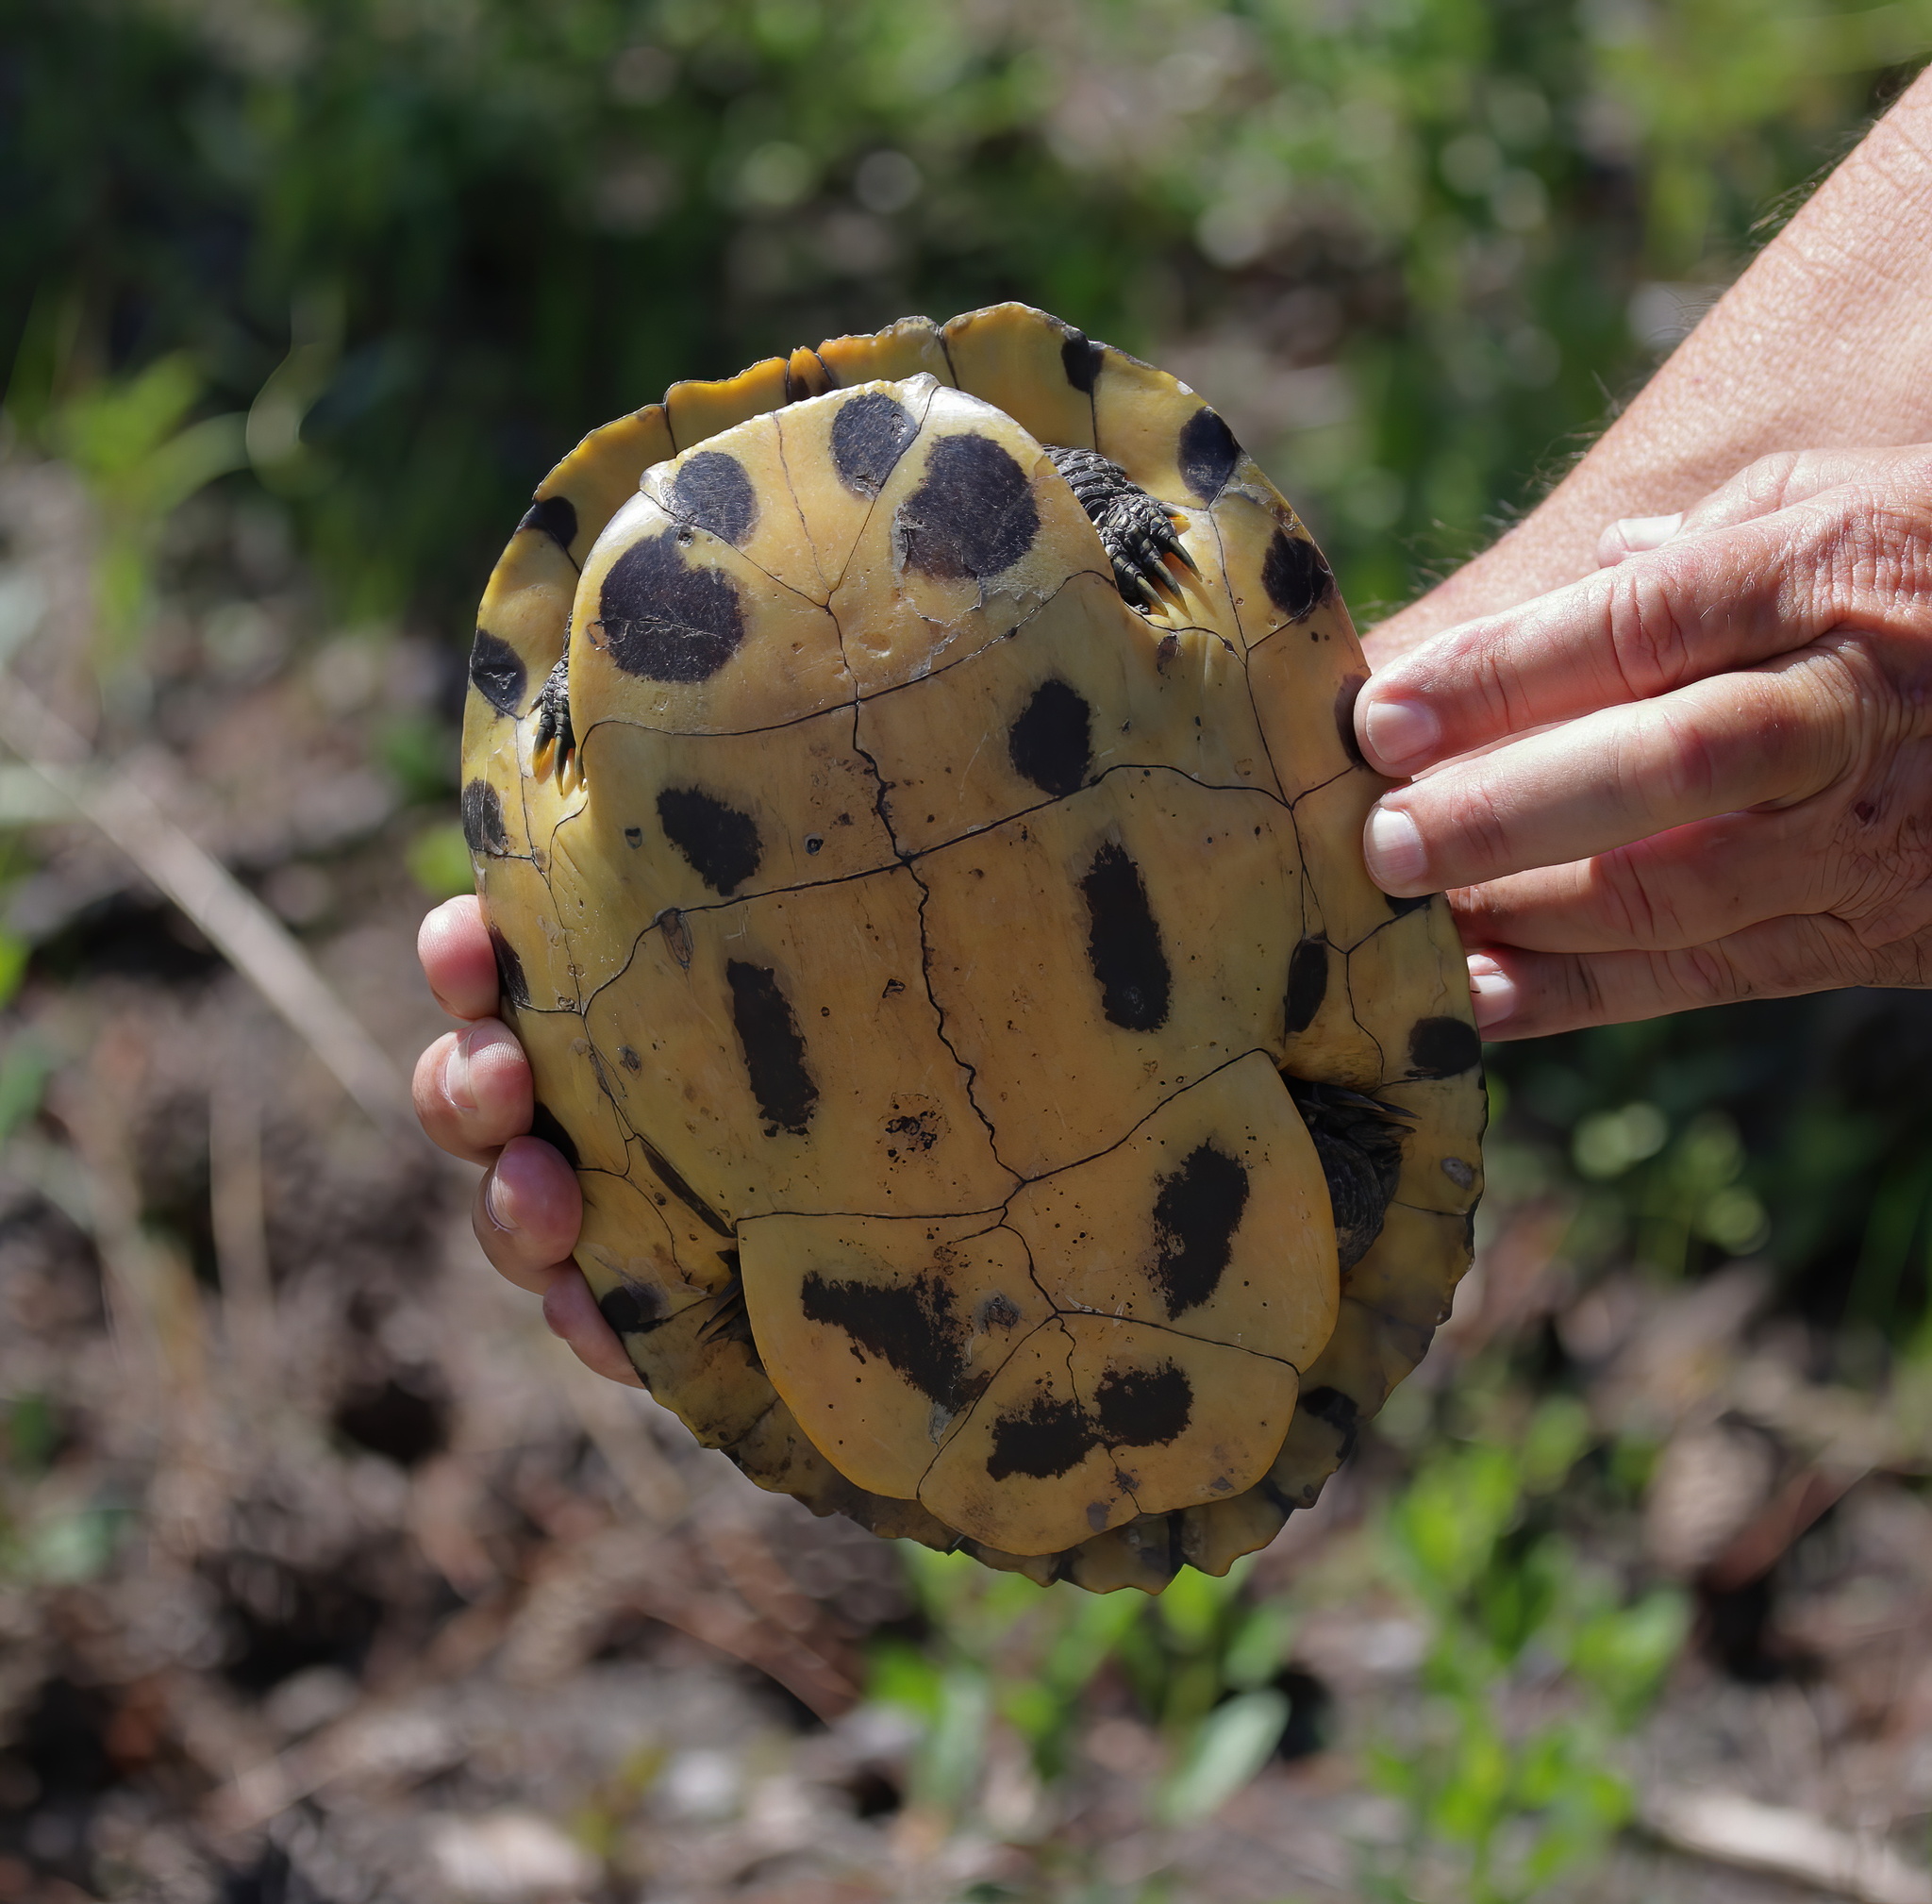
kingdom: Animalia
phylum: Chordata
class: Testudines
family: Emydidae
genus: Trachemys
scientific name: Trachemys scripta
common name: Slider
